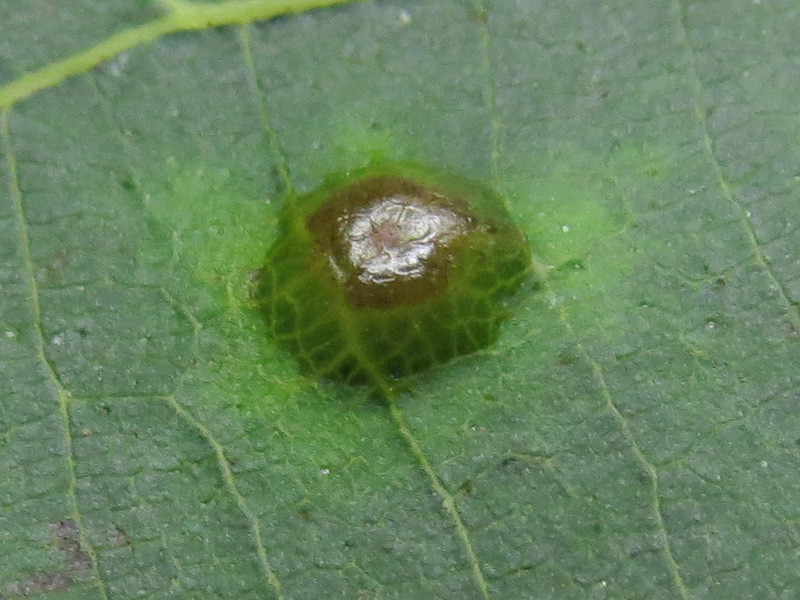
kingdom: Animalia
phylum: Arthropoda
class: Insecta
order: Diptera
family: Cecidomyiidae
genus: Caryomyia
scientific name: Caryomyia levicrustum
